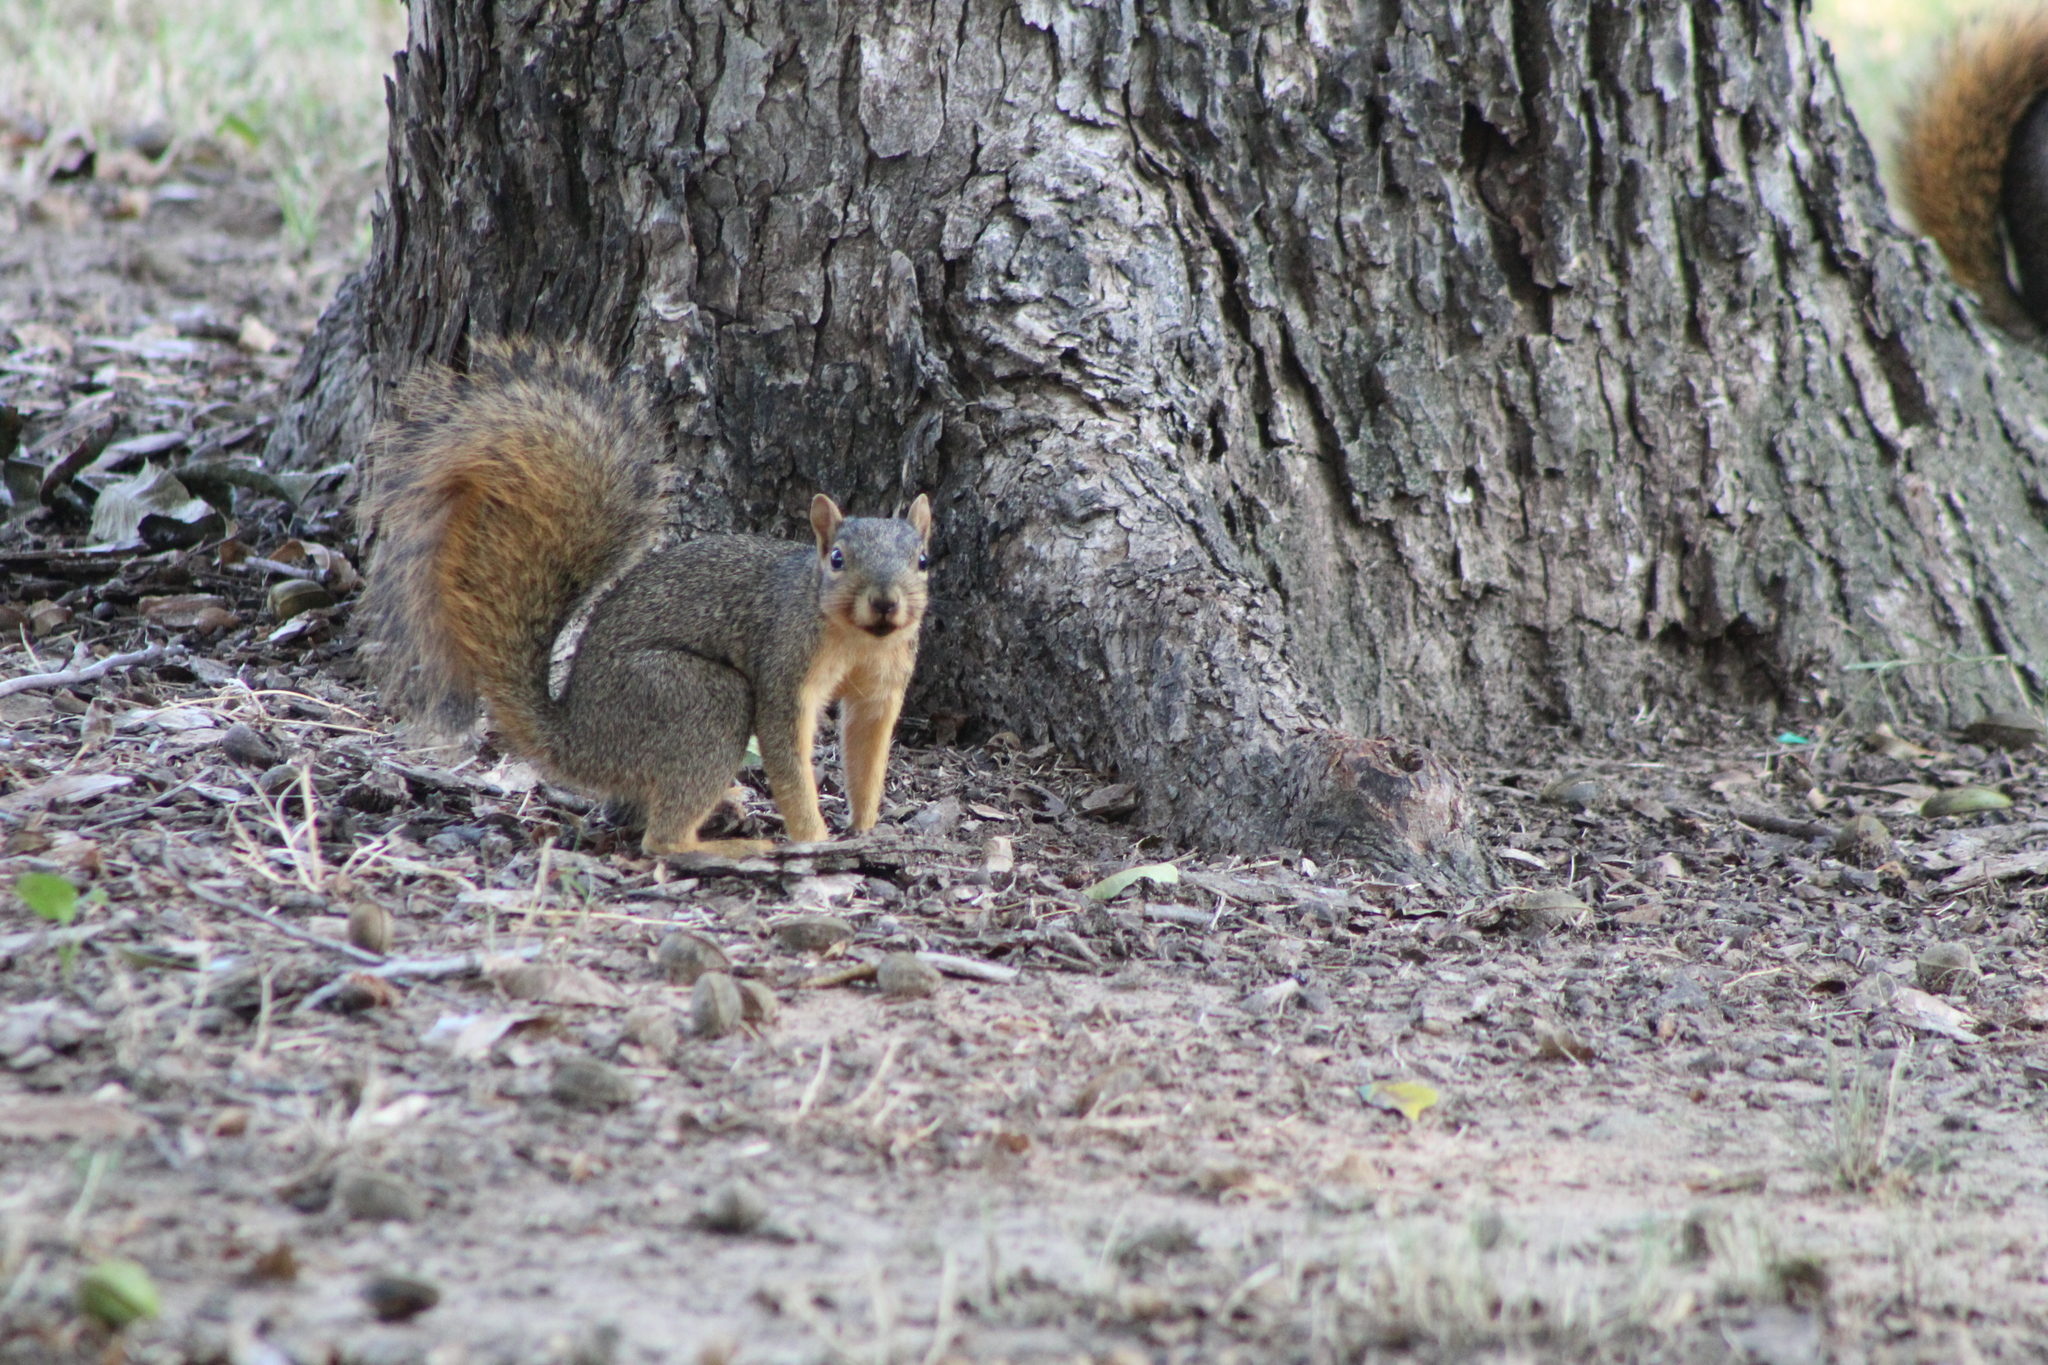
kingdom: Animalia
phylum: Chordata
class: Mammalia
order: Rodentia
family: Sciuridae
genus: Sciurus
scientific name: Sciurus niger
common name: Fox squirrel
